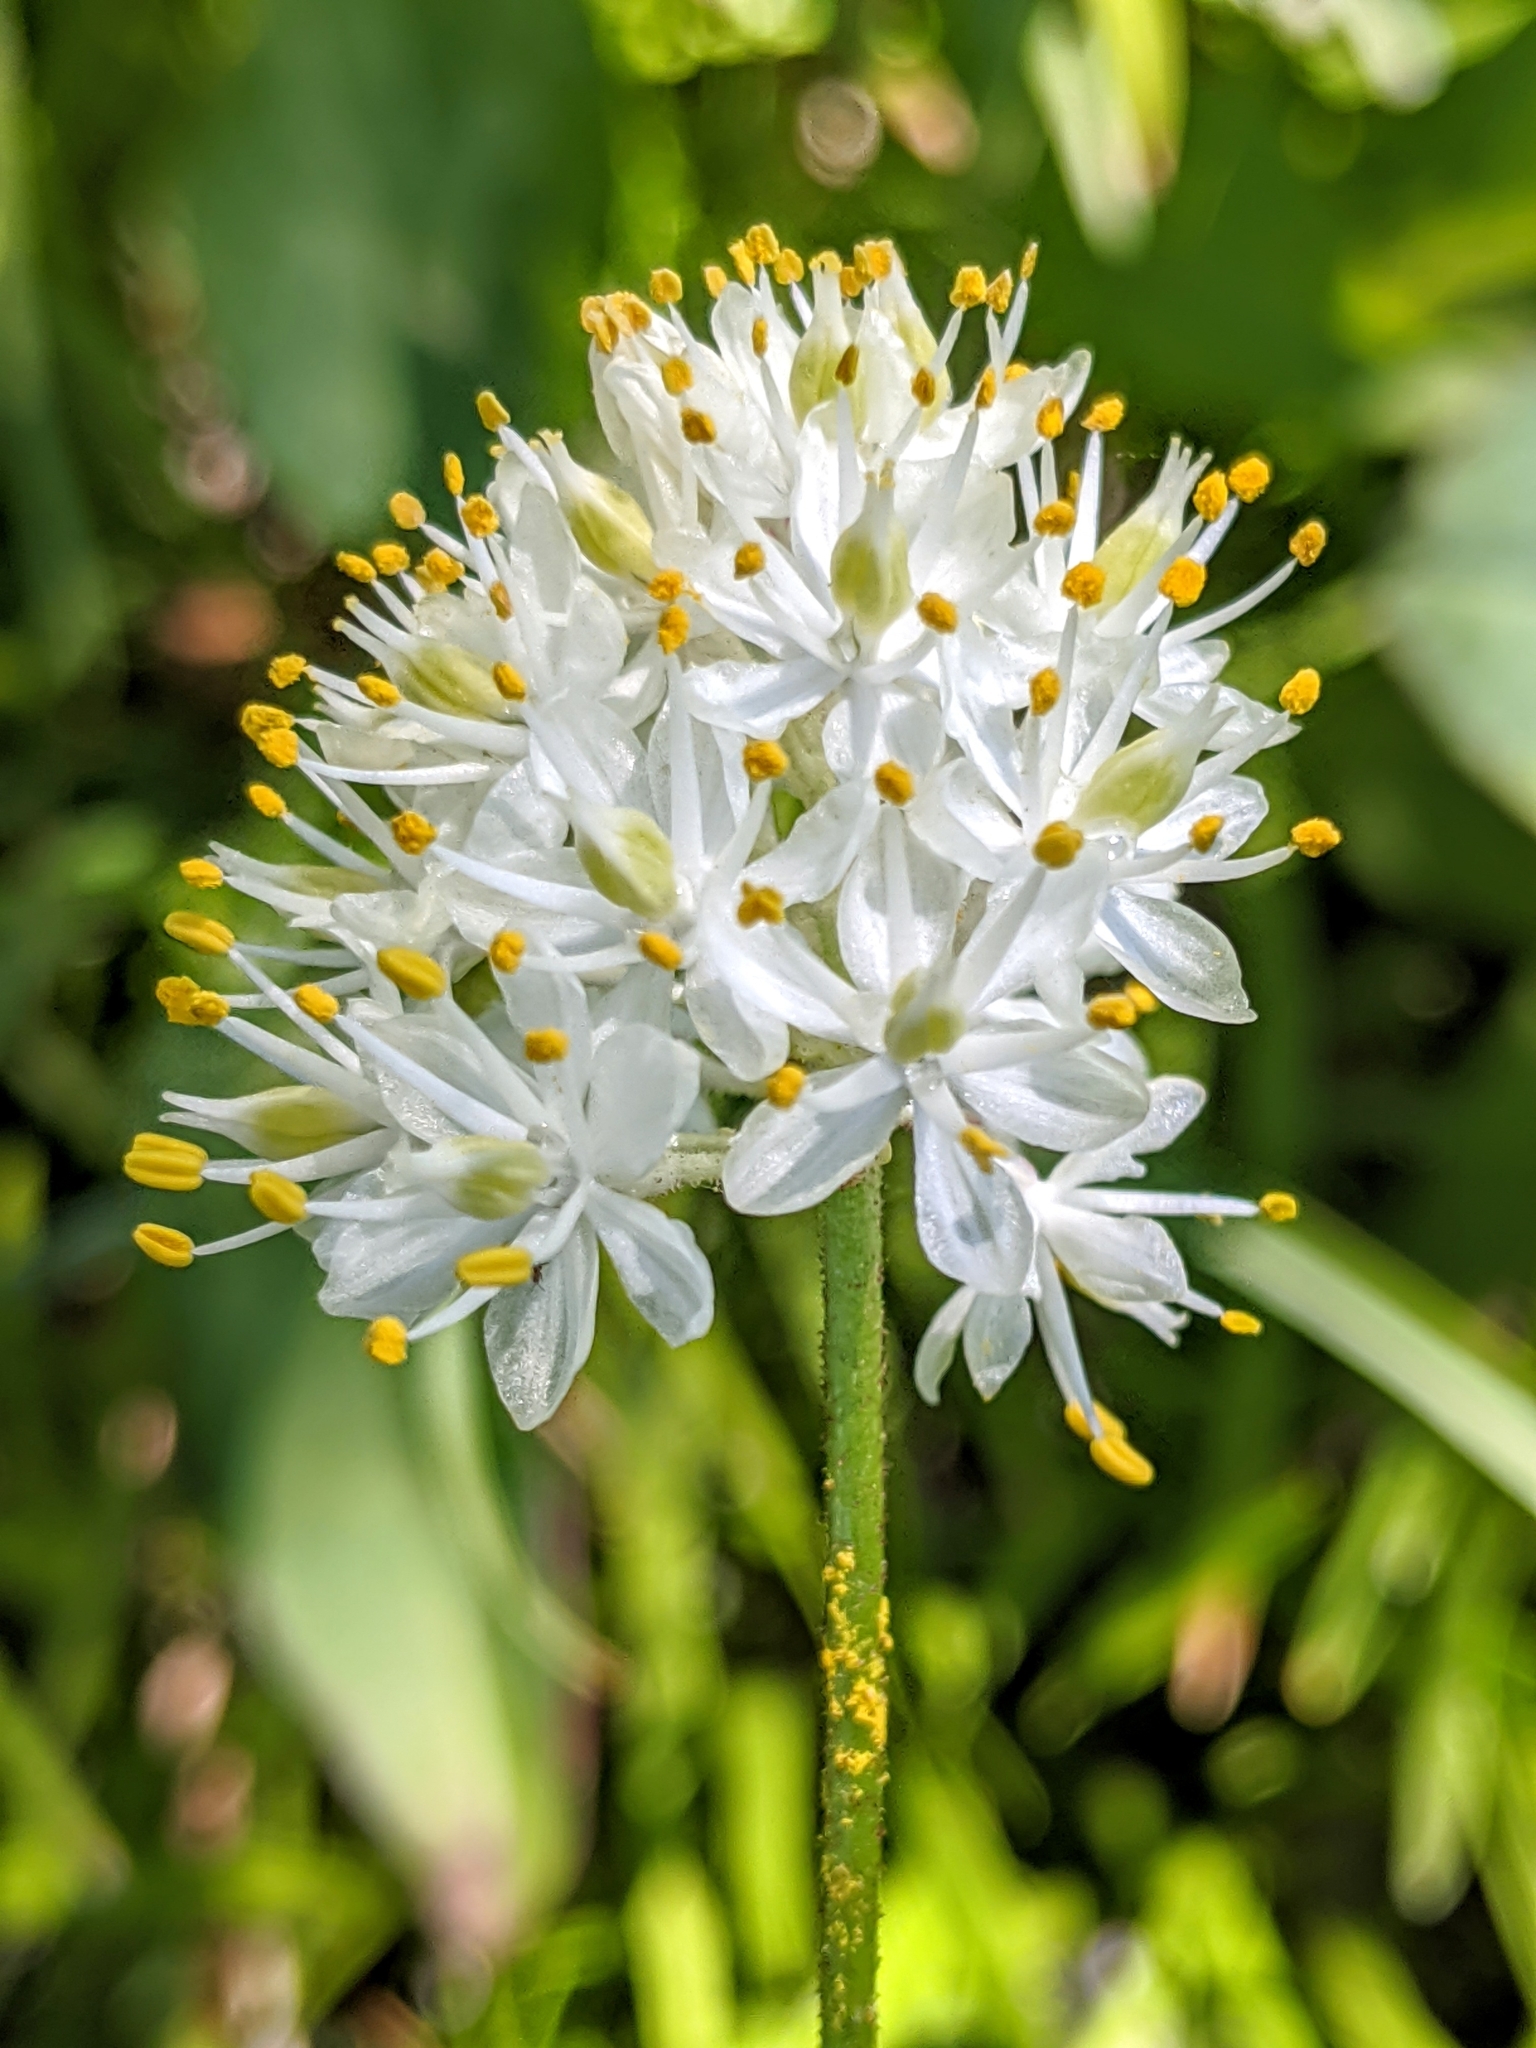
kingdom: Plantae
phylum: Tracheophyta
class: Liliopsida
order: Alismatales
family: Tofieldiaceae
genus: Triantha
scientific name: Triantha occidentalis
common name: Western false asphodel
